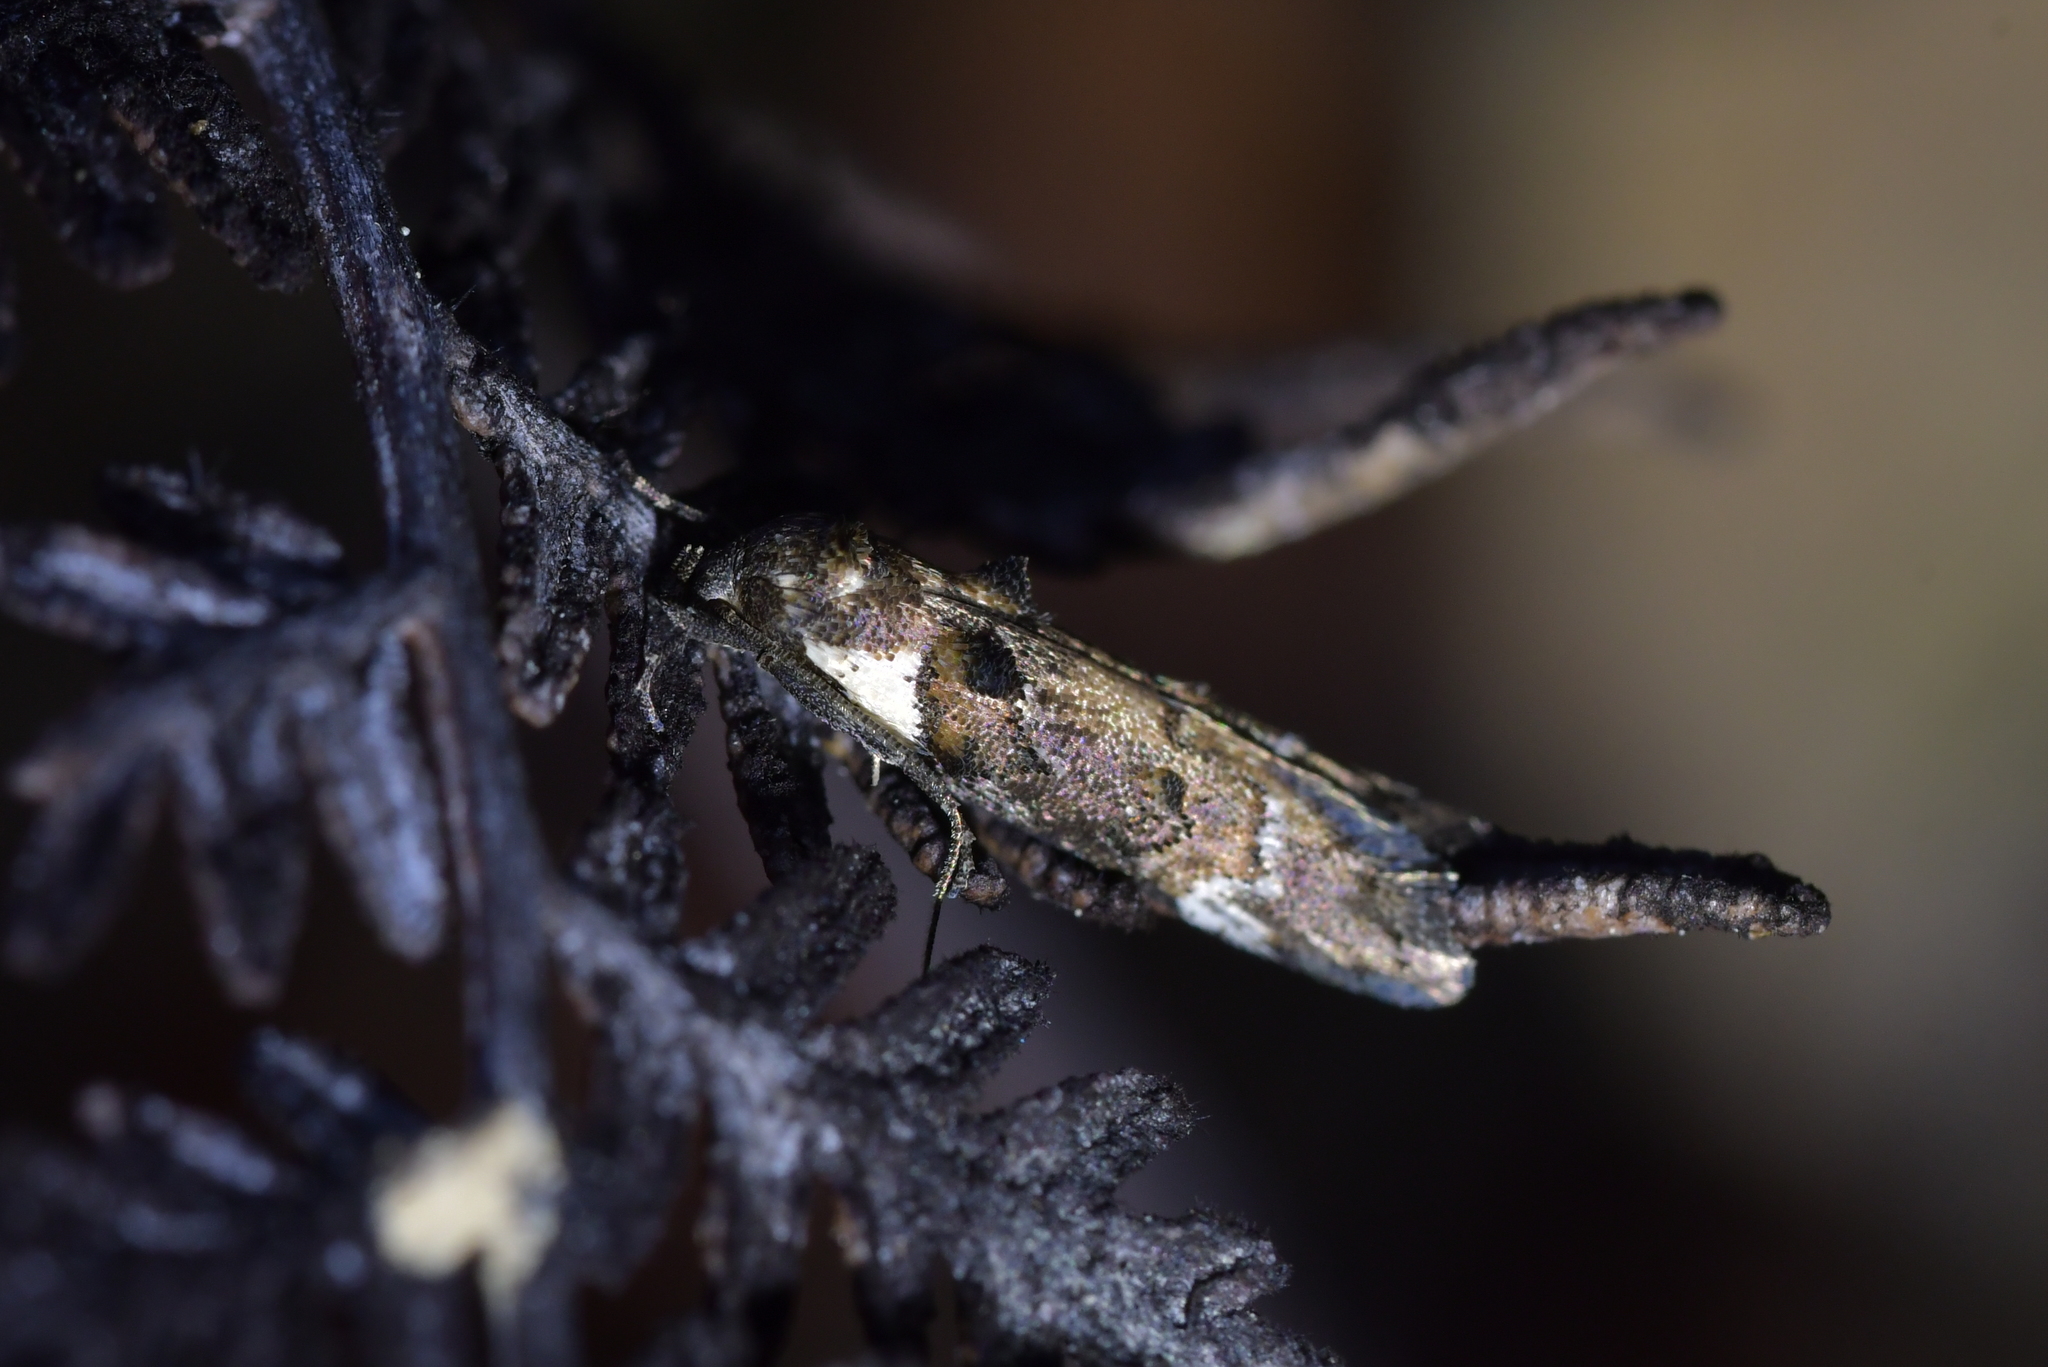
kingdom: Animalia
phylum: Arthropoda
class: Insecta
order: Lepidoptera
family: Oecophoridae
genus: Trachypepla
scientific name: Trachypepla conspicuella
